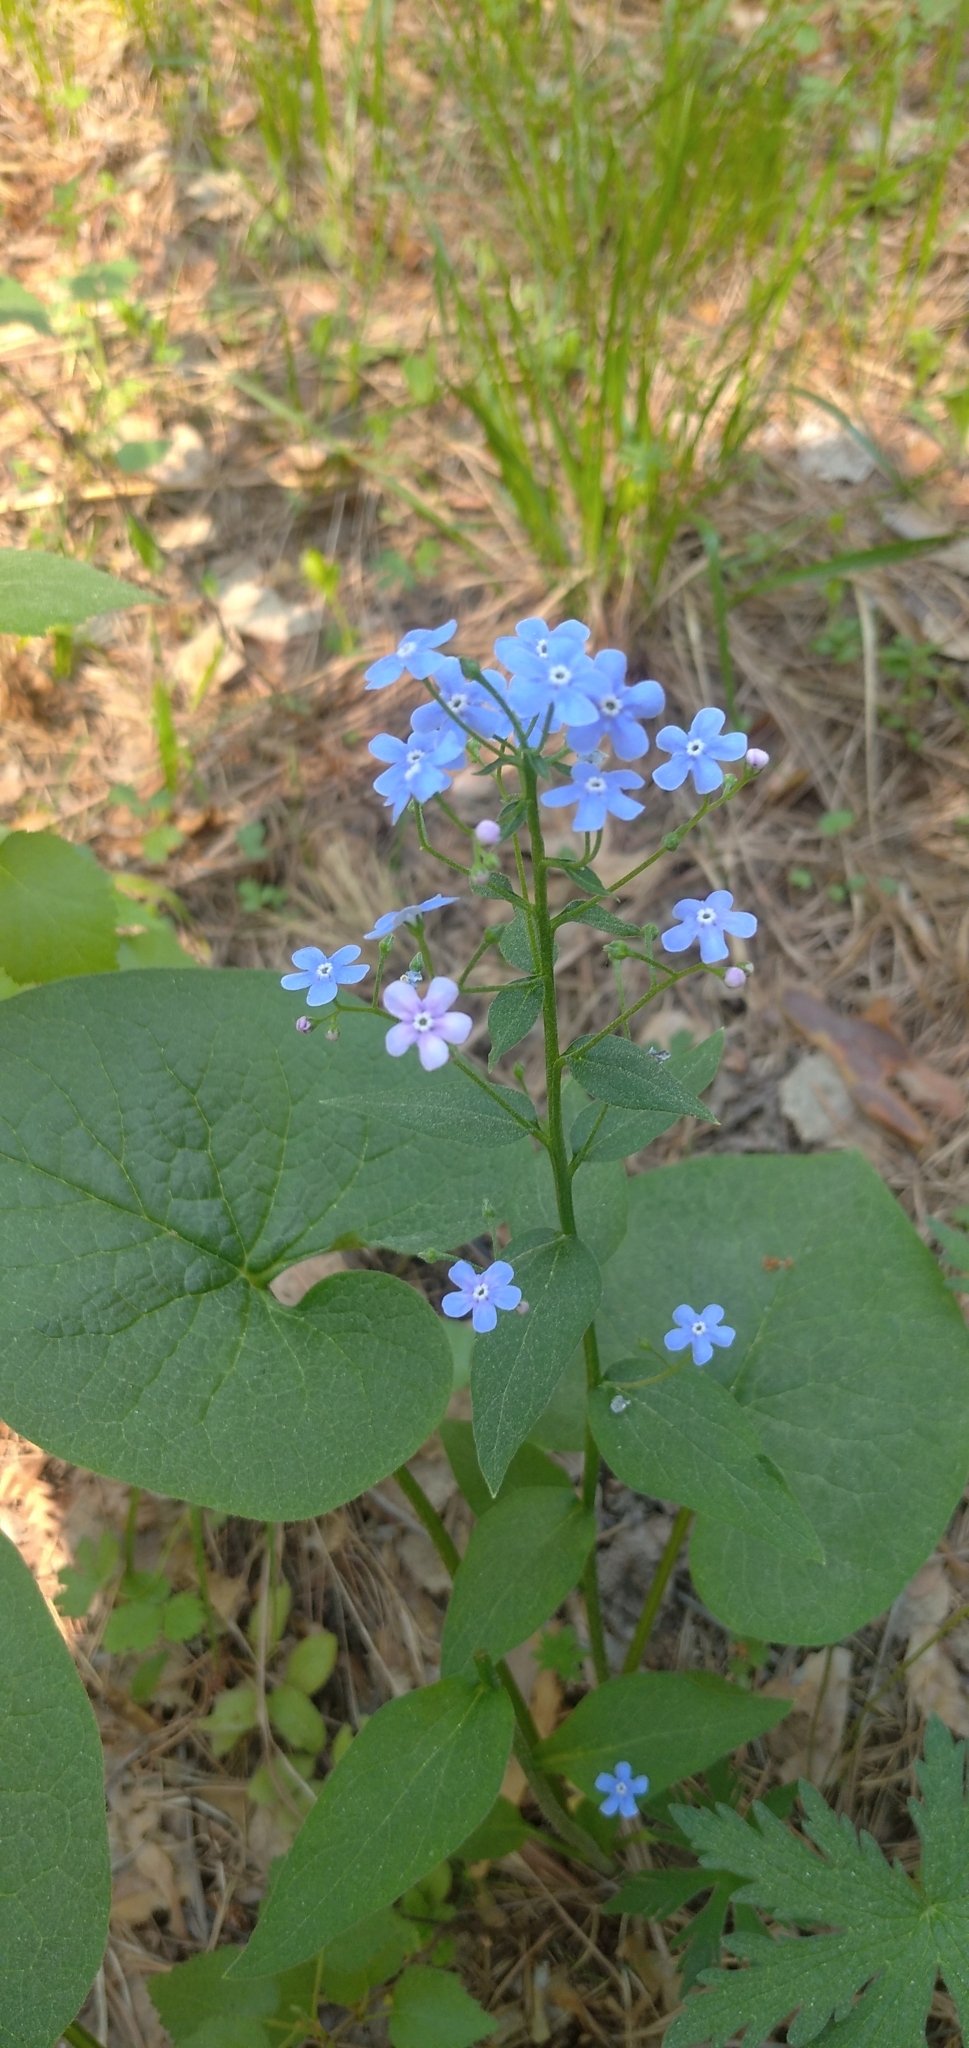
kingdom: Plantae
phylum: Tracheophyta
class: Magnoliopsida
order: Boraginales
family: Boraginaceae
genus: Brunnera
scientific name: Brunnera sibirica
